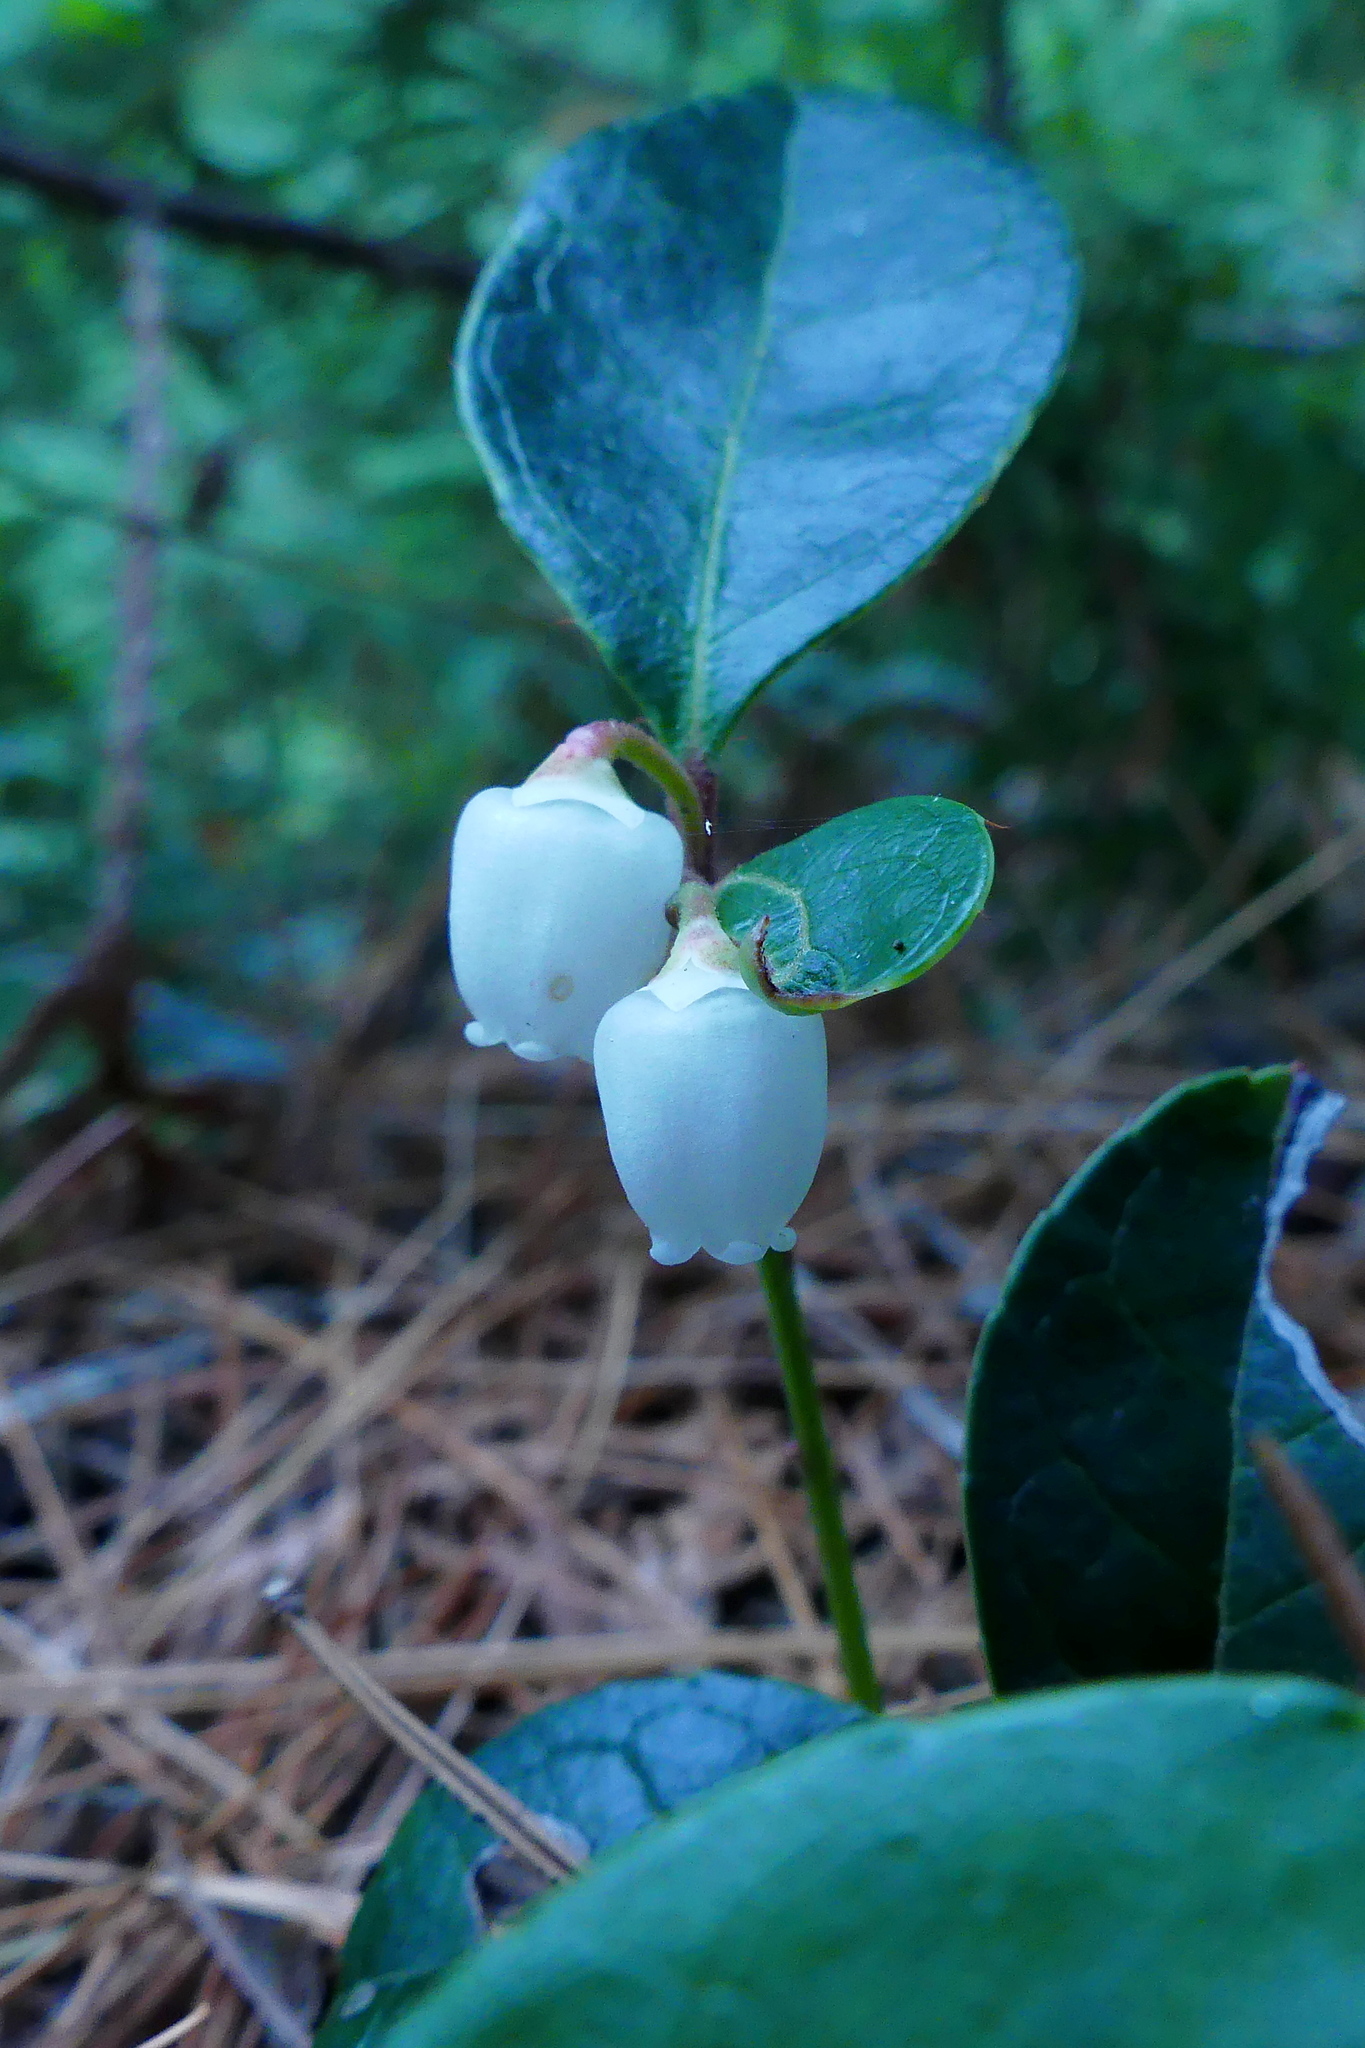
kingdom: Plantae
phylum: Tracheophyta
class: Magnoliopsida
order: Ericales
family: Ericaceae
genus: Gaultheria
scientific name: Gaultheria procumbens
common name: Checkerberry
